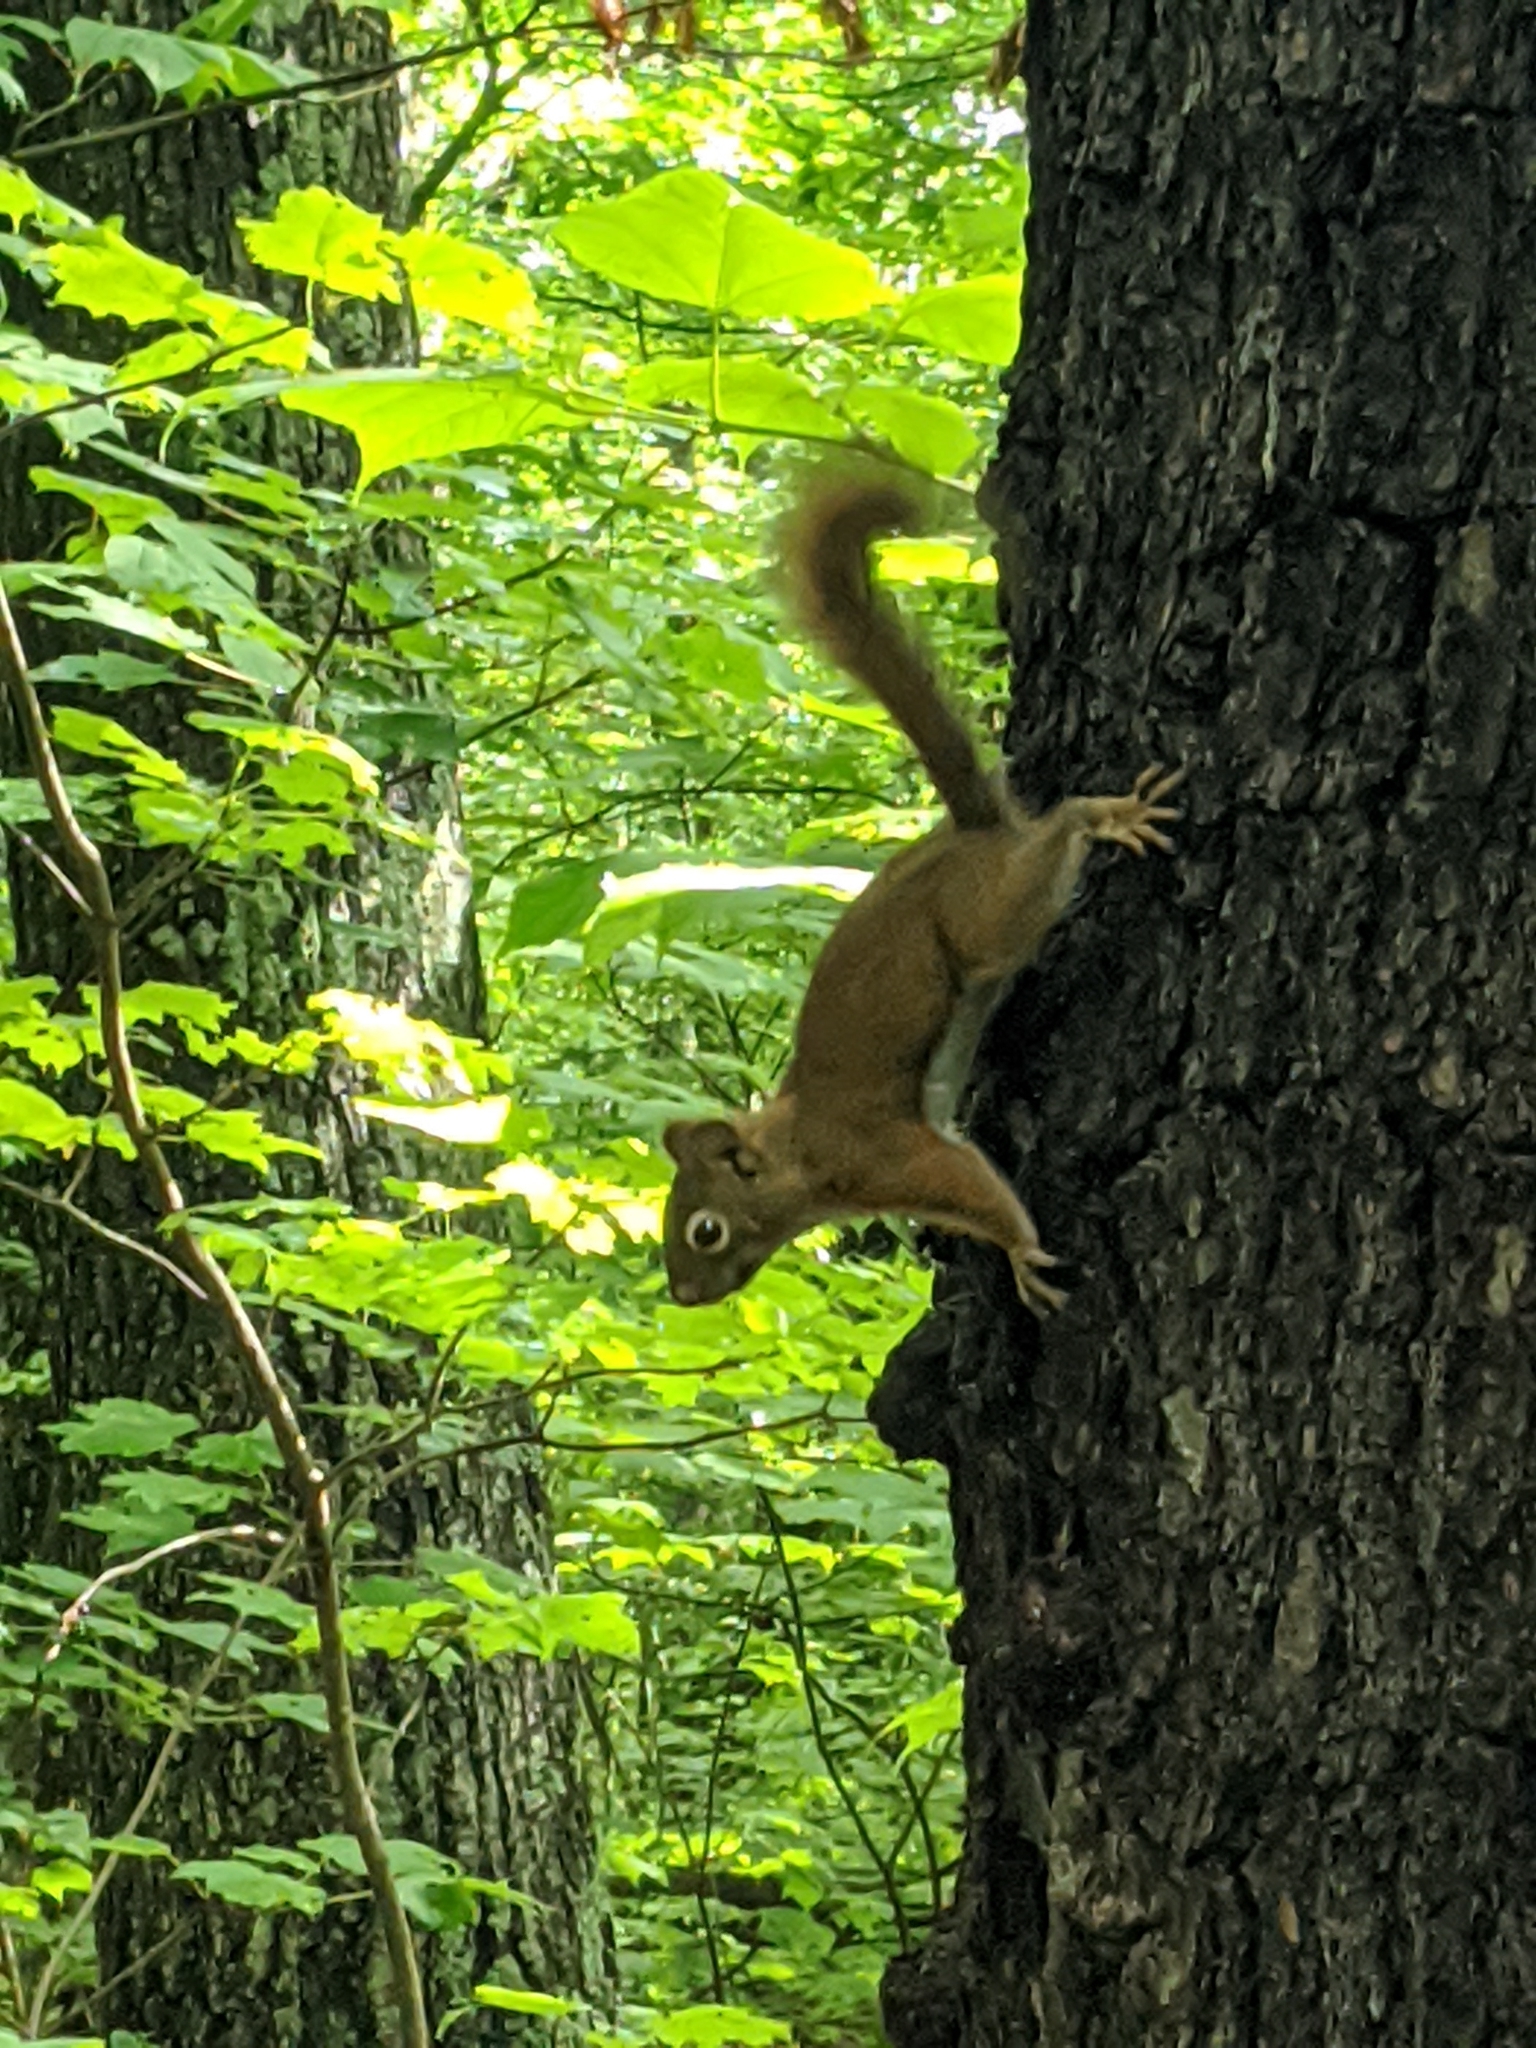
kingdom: Animalia
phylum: Chordata
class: Mammalia
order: Rodentia
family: Sciuridae
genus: Tamiasciurus
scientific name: Tamiasciurus hudsonicus
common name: Red squirrel
